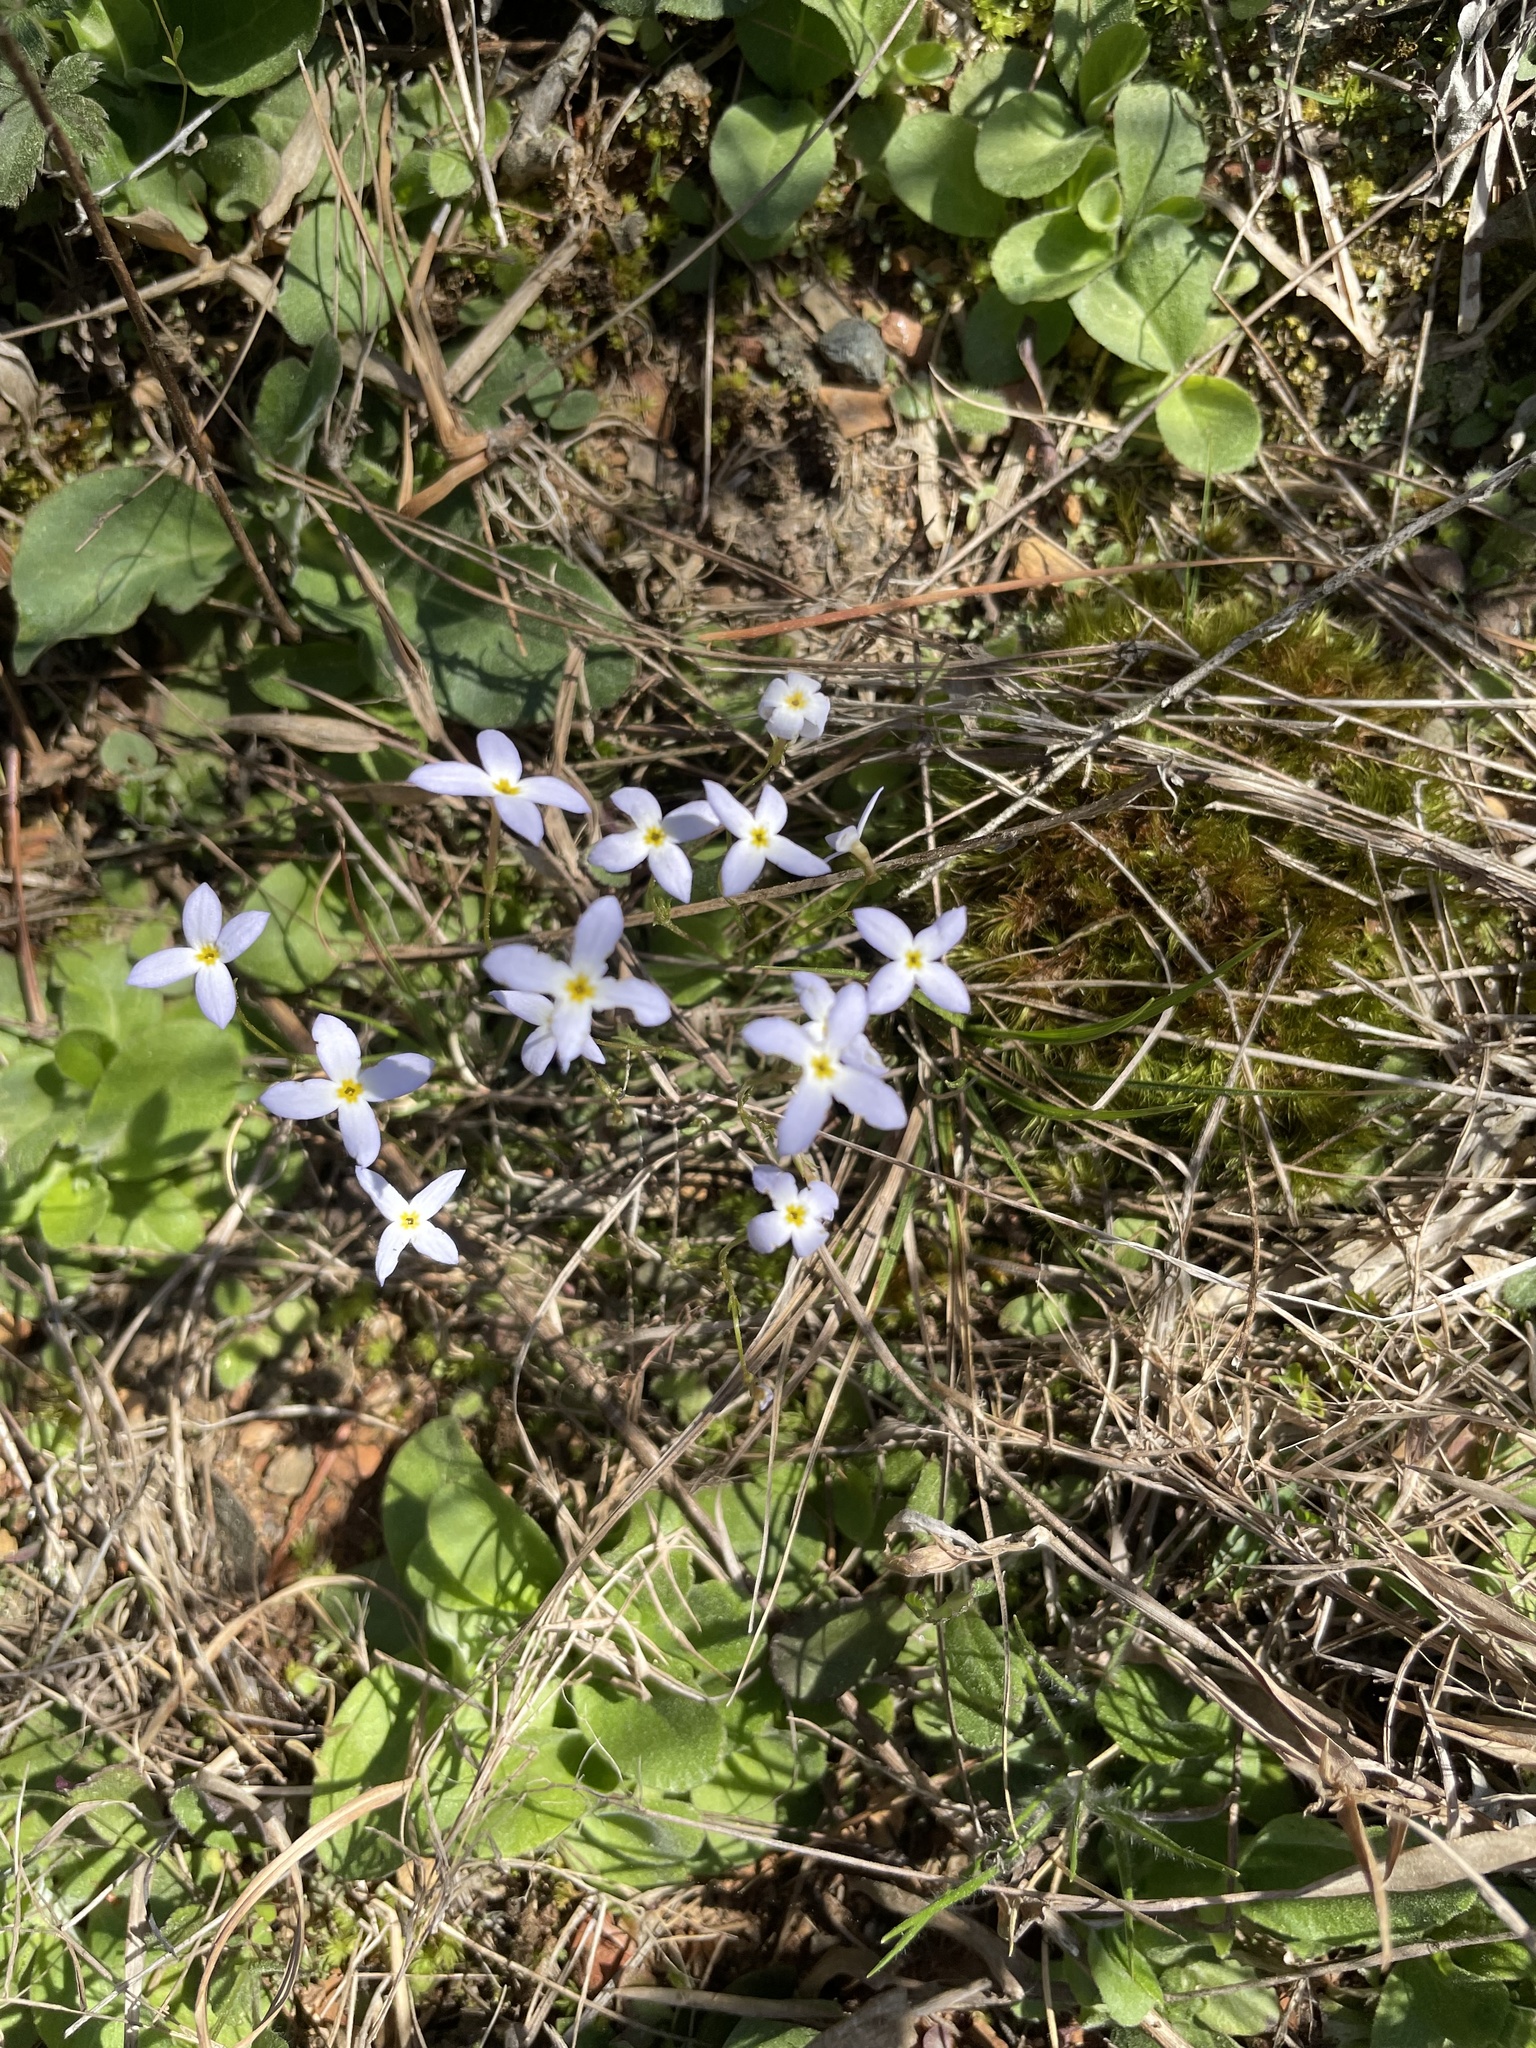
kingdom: Plantae
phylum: Tracheophyta
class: Magnoliopsida
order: Gentianales
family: Rubiaceae
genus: Houstonia
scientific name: Houstonia caerulea
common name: Bluets
